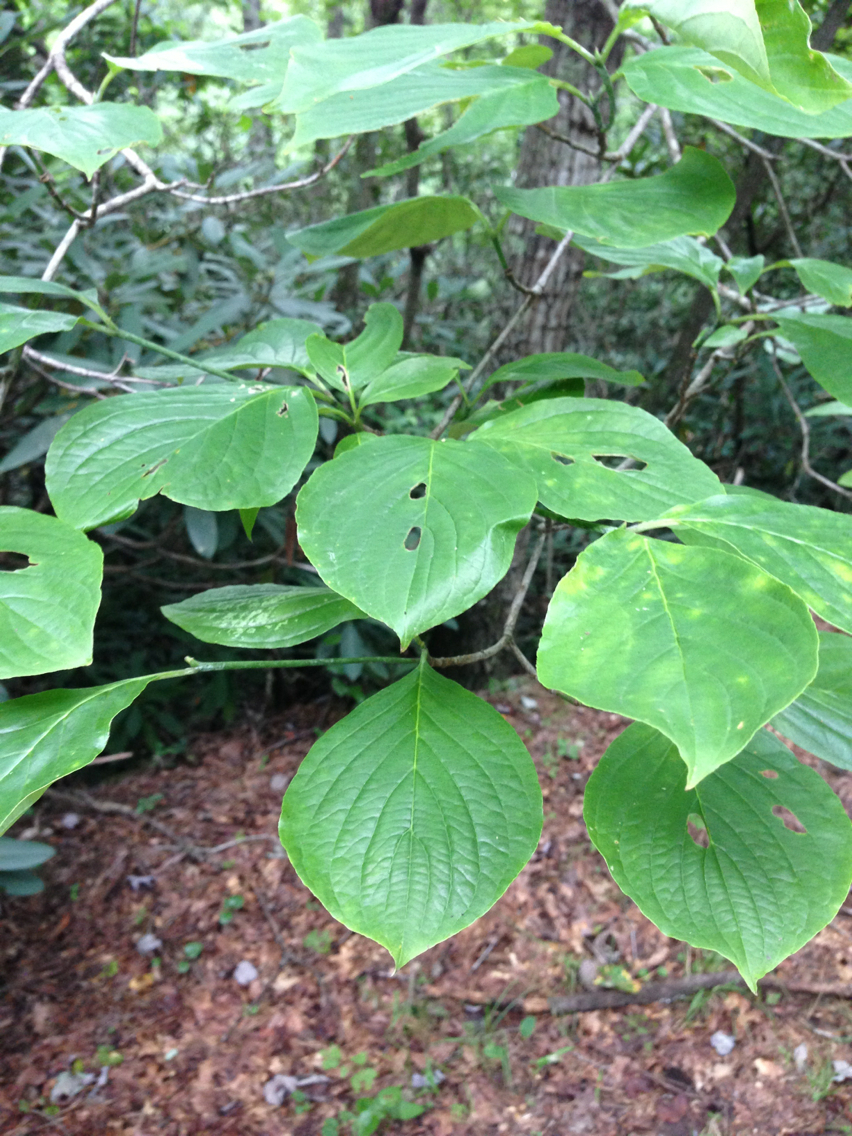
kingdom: Plantae
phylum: Tracheophyta
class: Magnoliopsida
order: Cornales
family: Cornaceae
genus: Cornus
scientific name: Cornus florida
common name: Flowering dogwood
